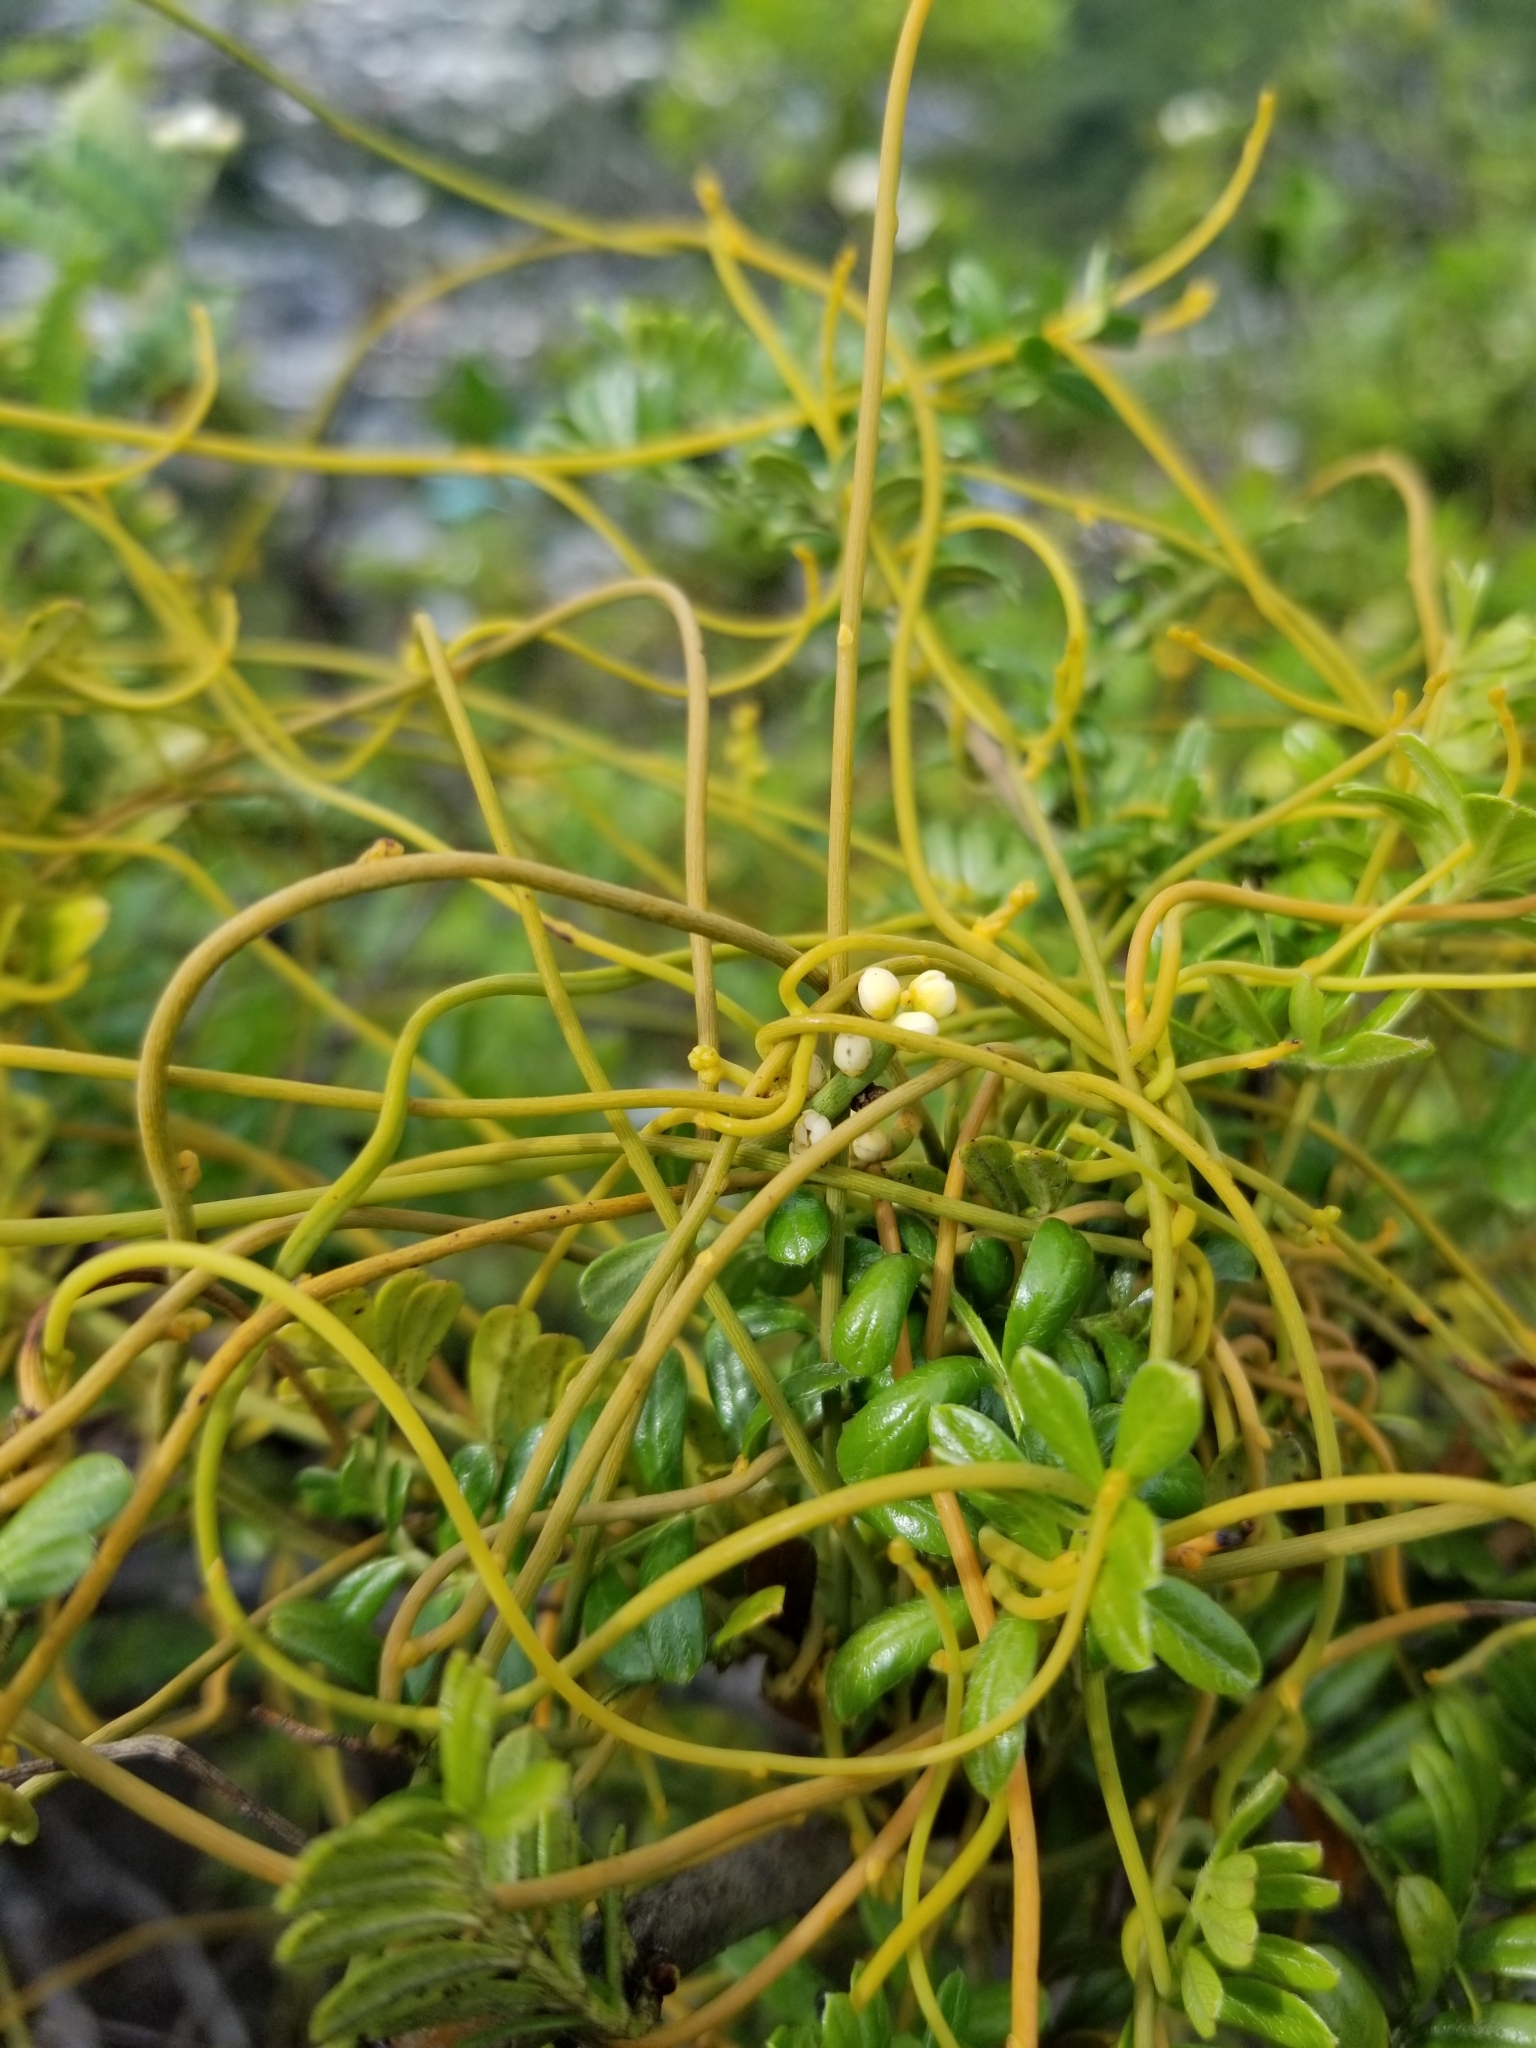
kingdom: Plantae
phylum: Tracheophyta
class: Magnoliopsida
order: Laurales
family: Lauraceae
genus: Cassytha
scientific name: Cassytha filiformis
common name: Dodder-laurel
